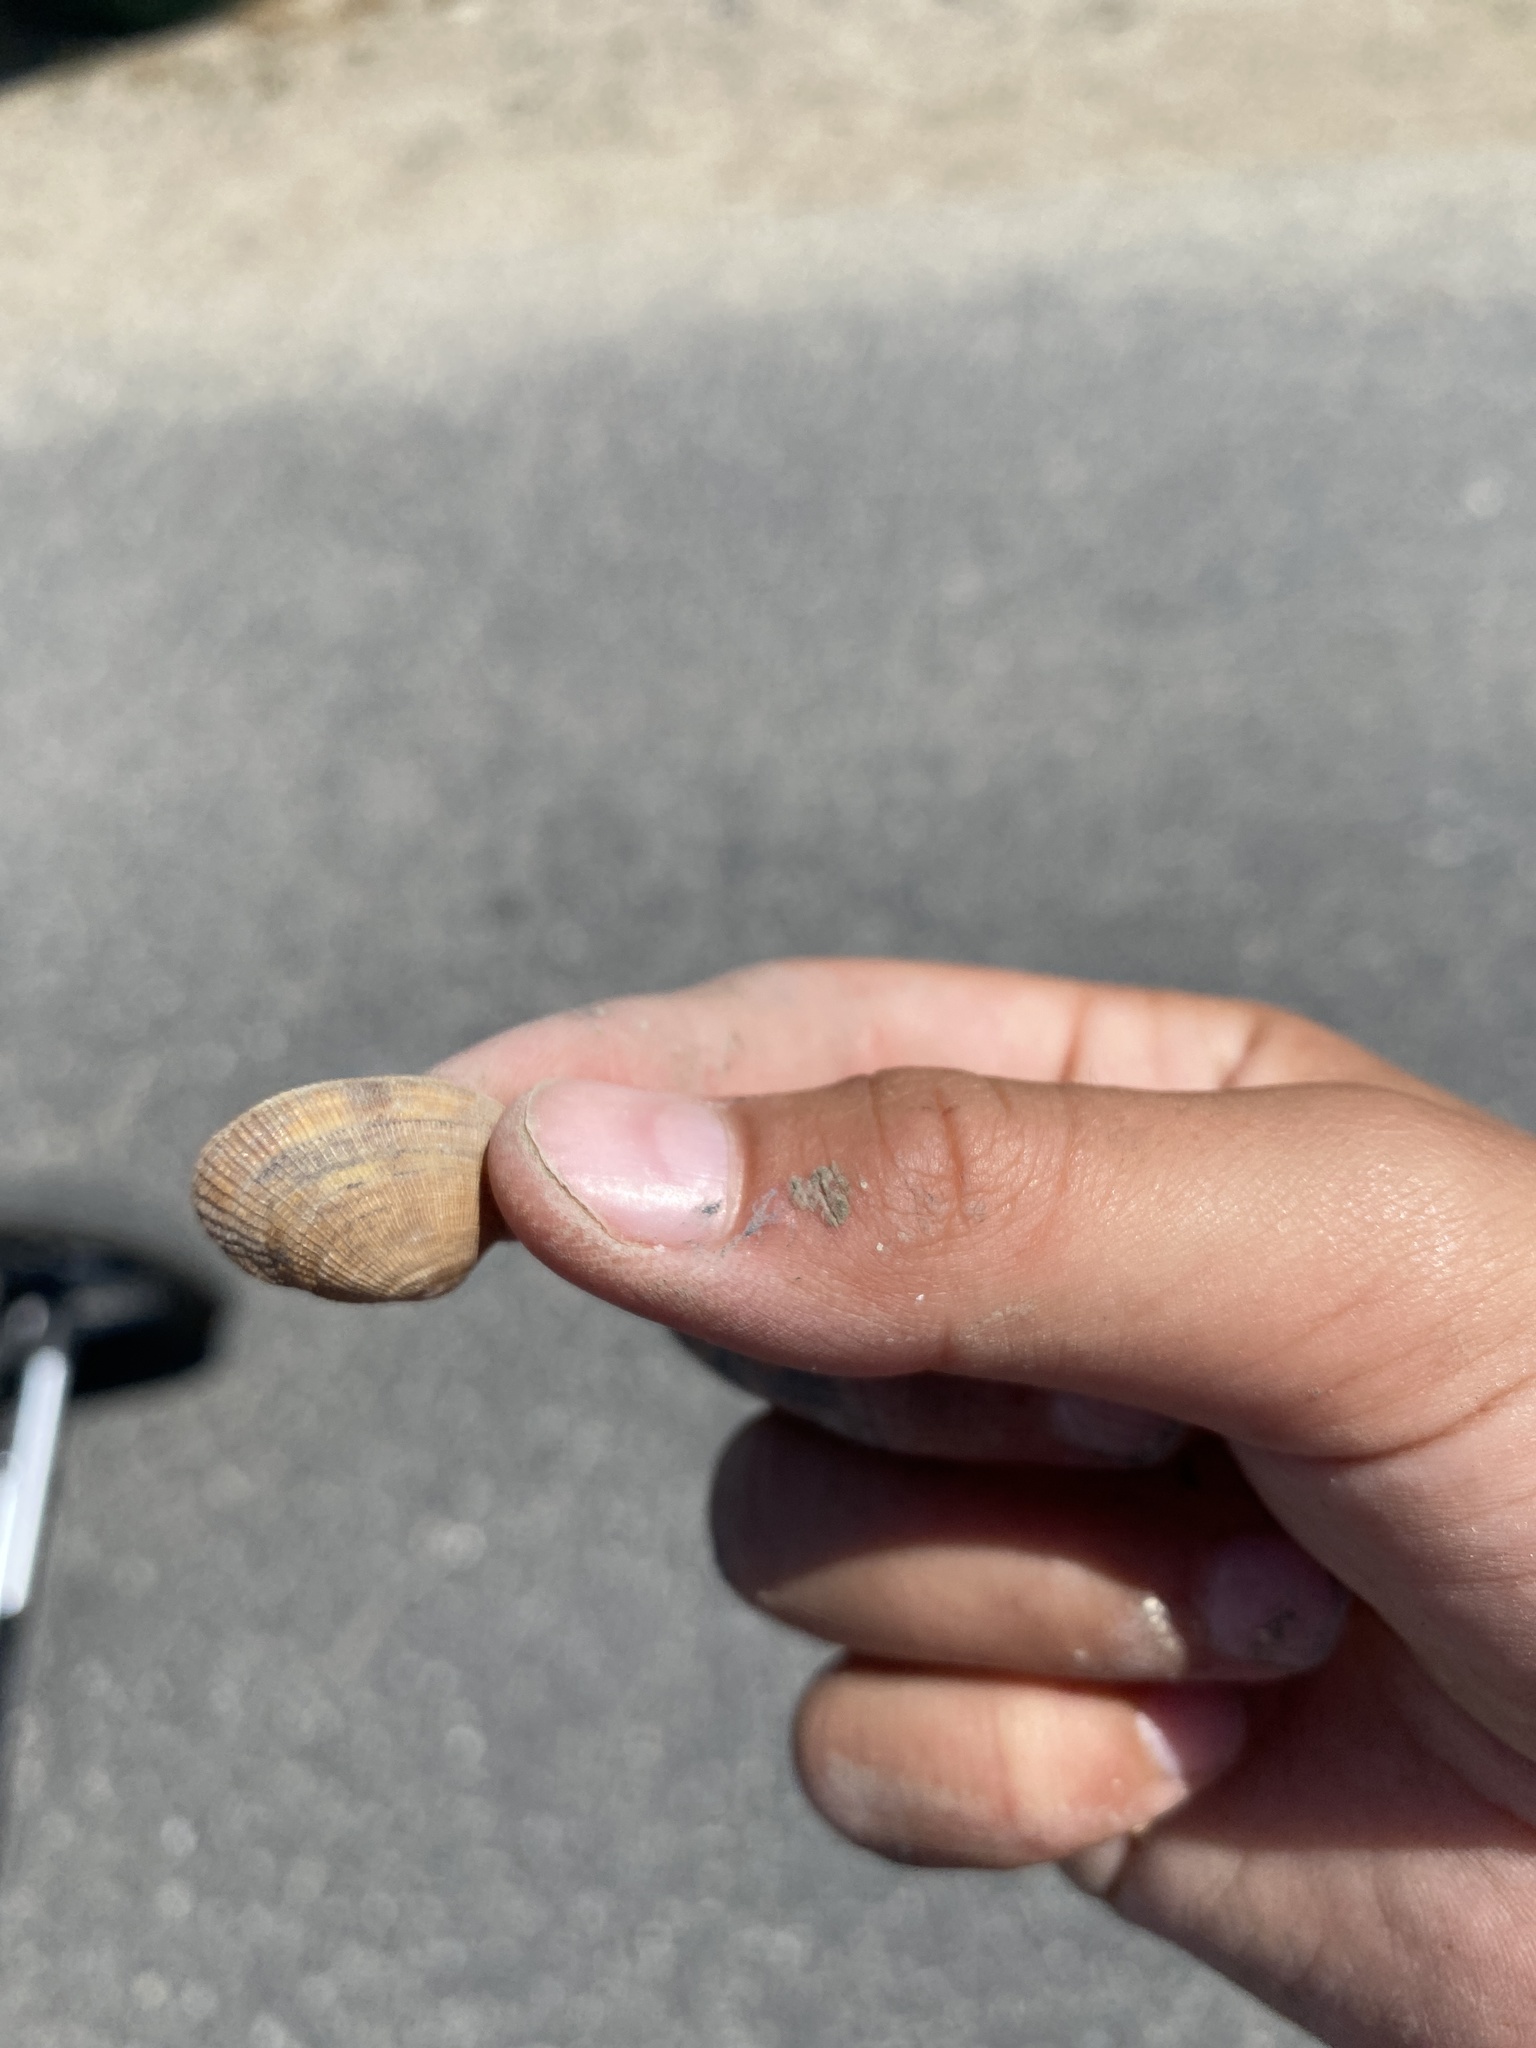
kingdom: Animalia
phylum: Mollusca
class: Bivalvia
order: Venerida
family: Veneridae
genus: Ruditapes
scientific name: Ruditapes philippinarum
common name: Manila clam
